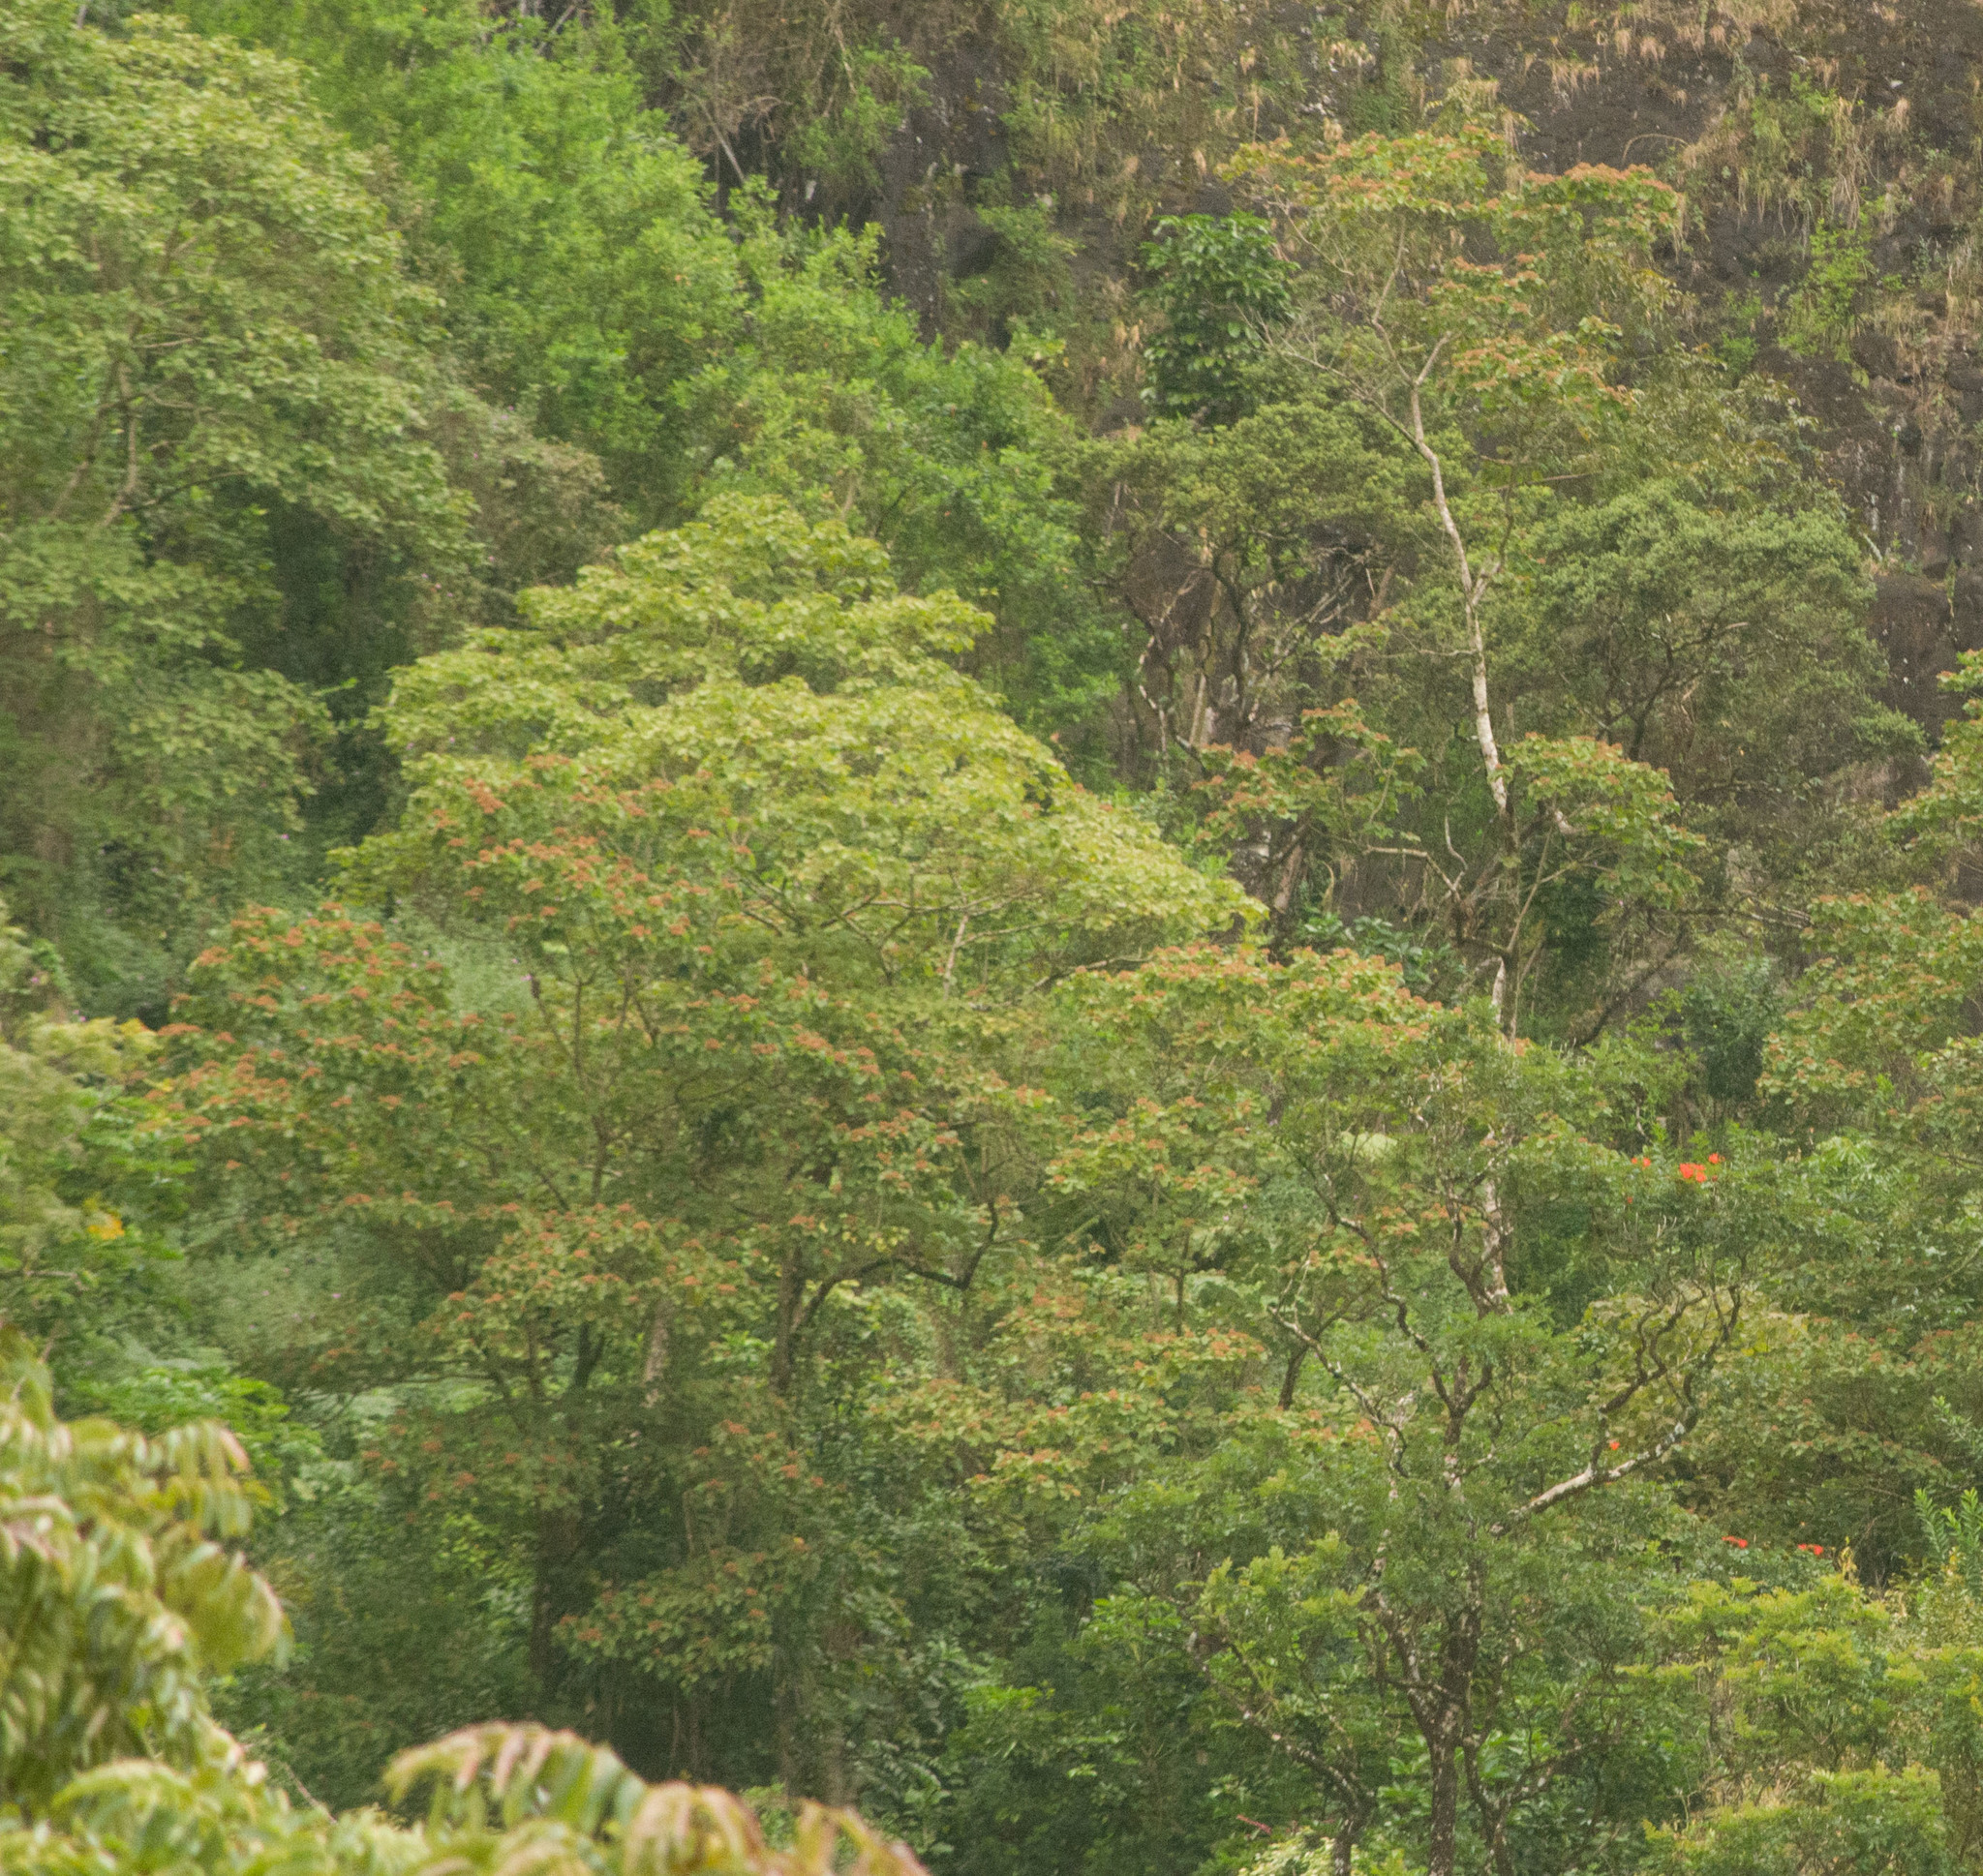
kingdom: Plantae
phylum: Tracheophyta
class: Magnoliopsida
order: Malvales
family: Malvaceae
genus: Heliocarpus
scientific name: Heliocarpus americanus
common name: White moho
